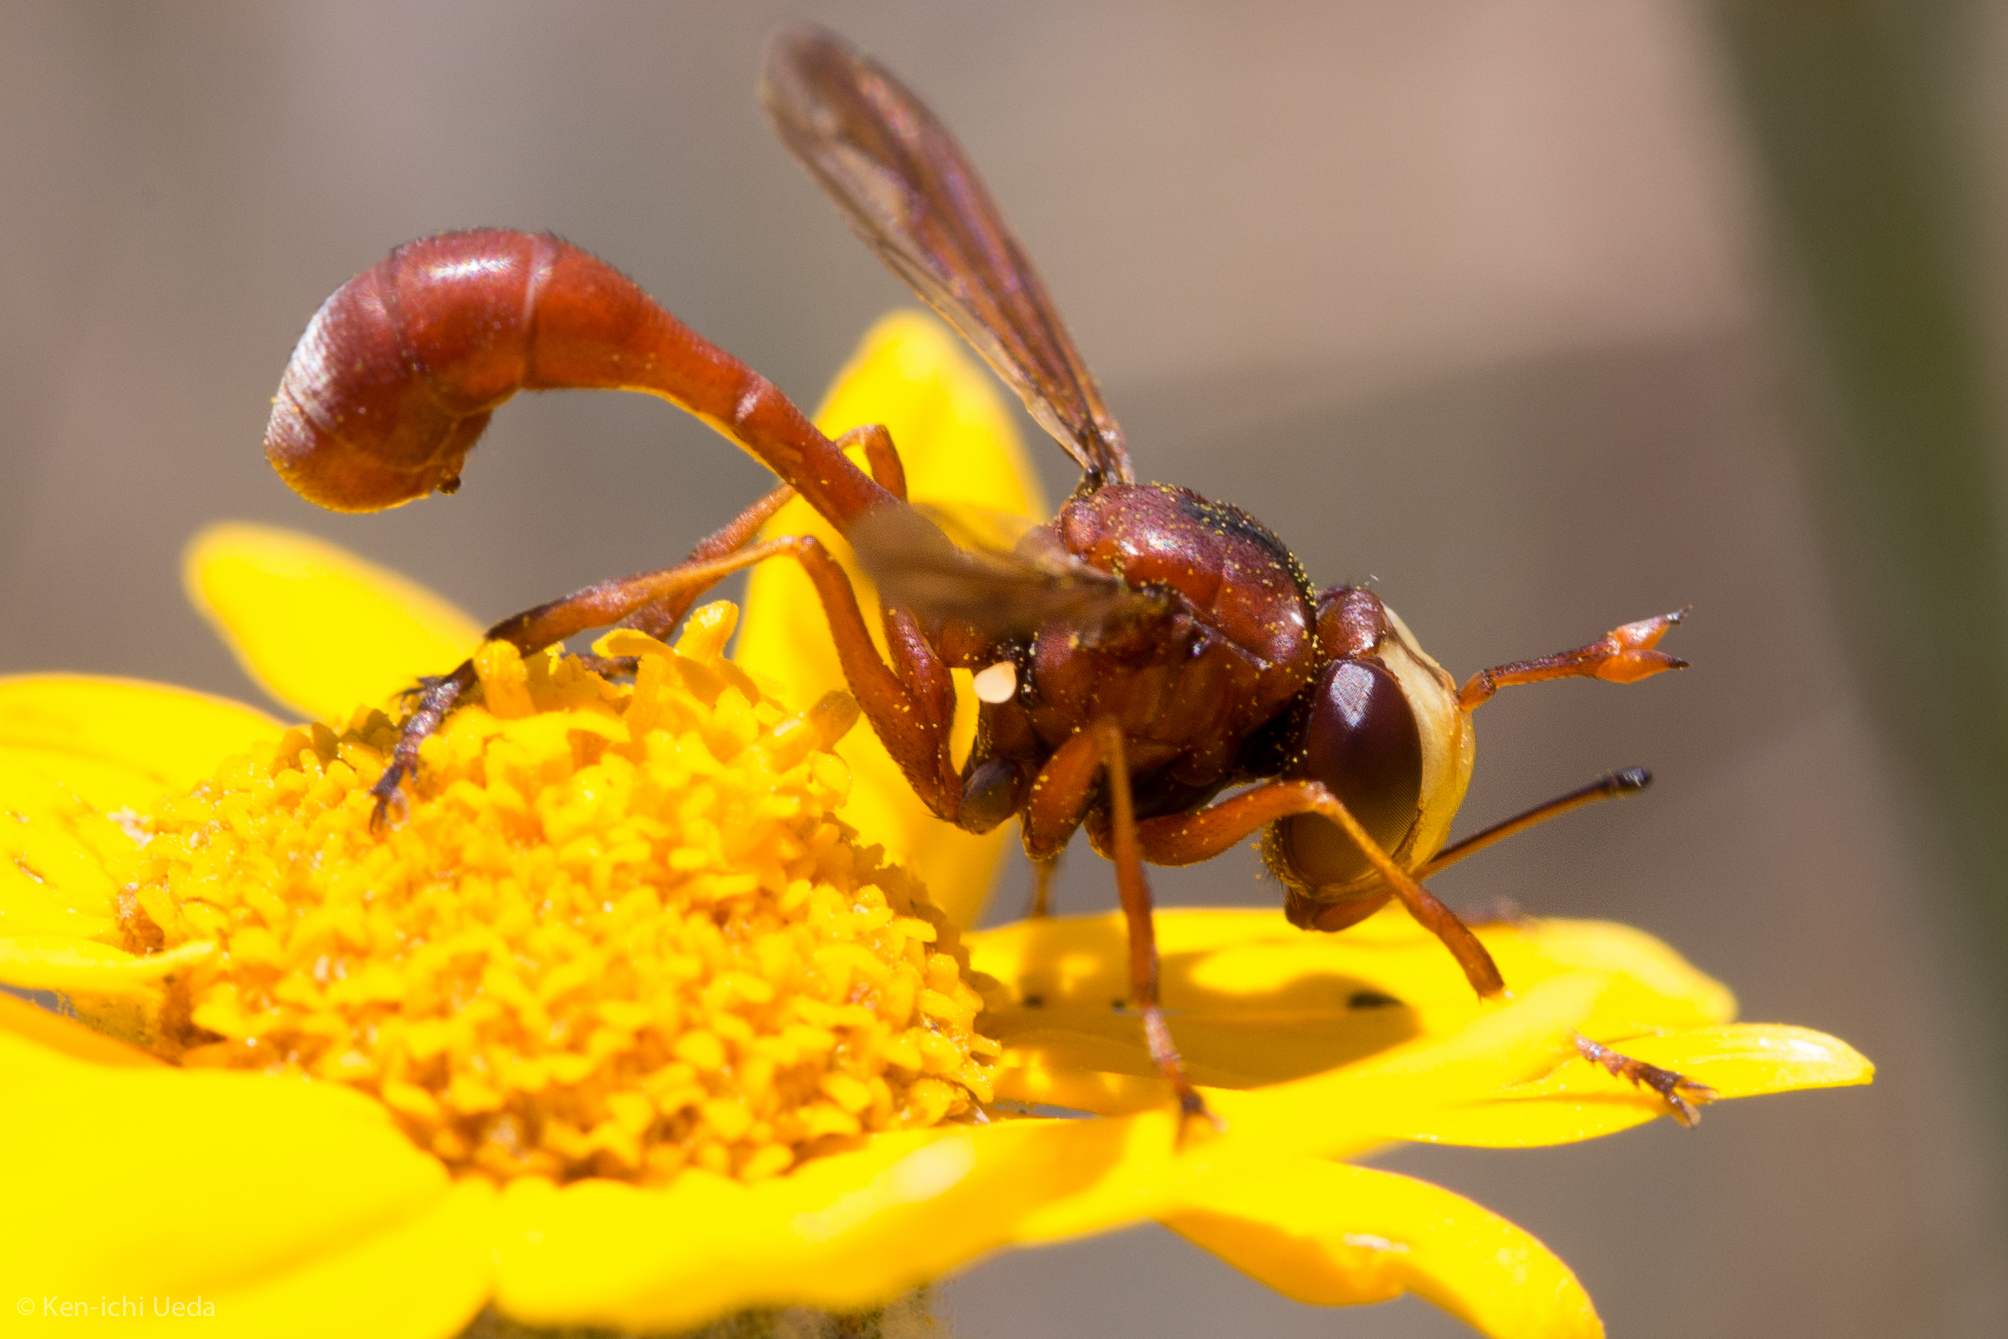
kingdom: Animalia
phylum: Arthropoda
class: Insecta
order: Diptera
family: Conopidae
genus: Physocephala
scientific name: Physocephala burgessi
